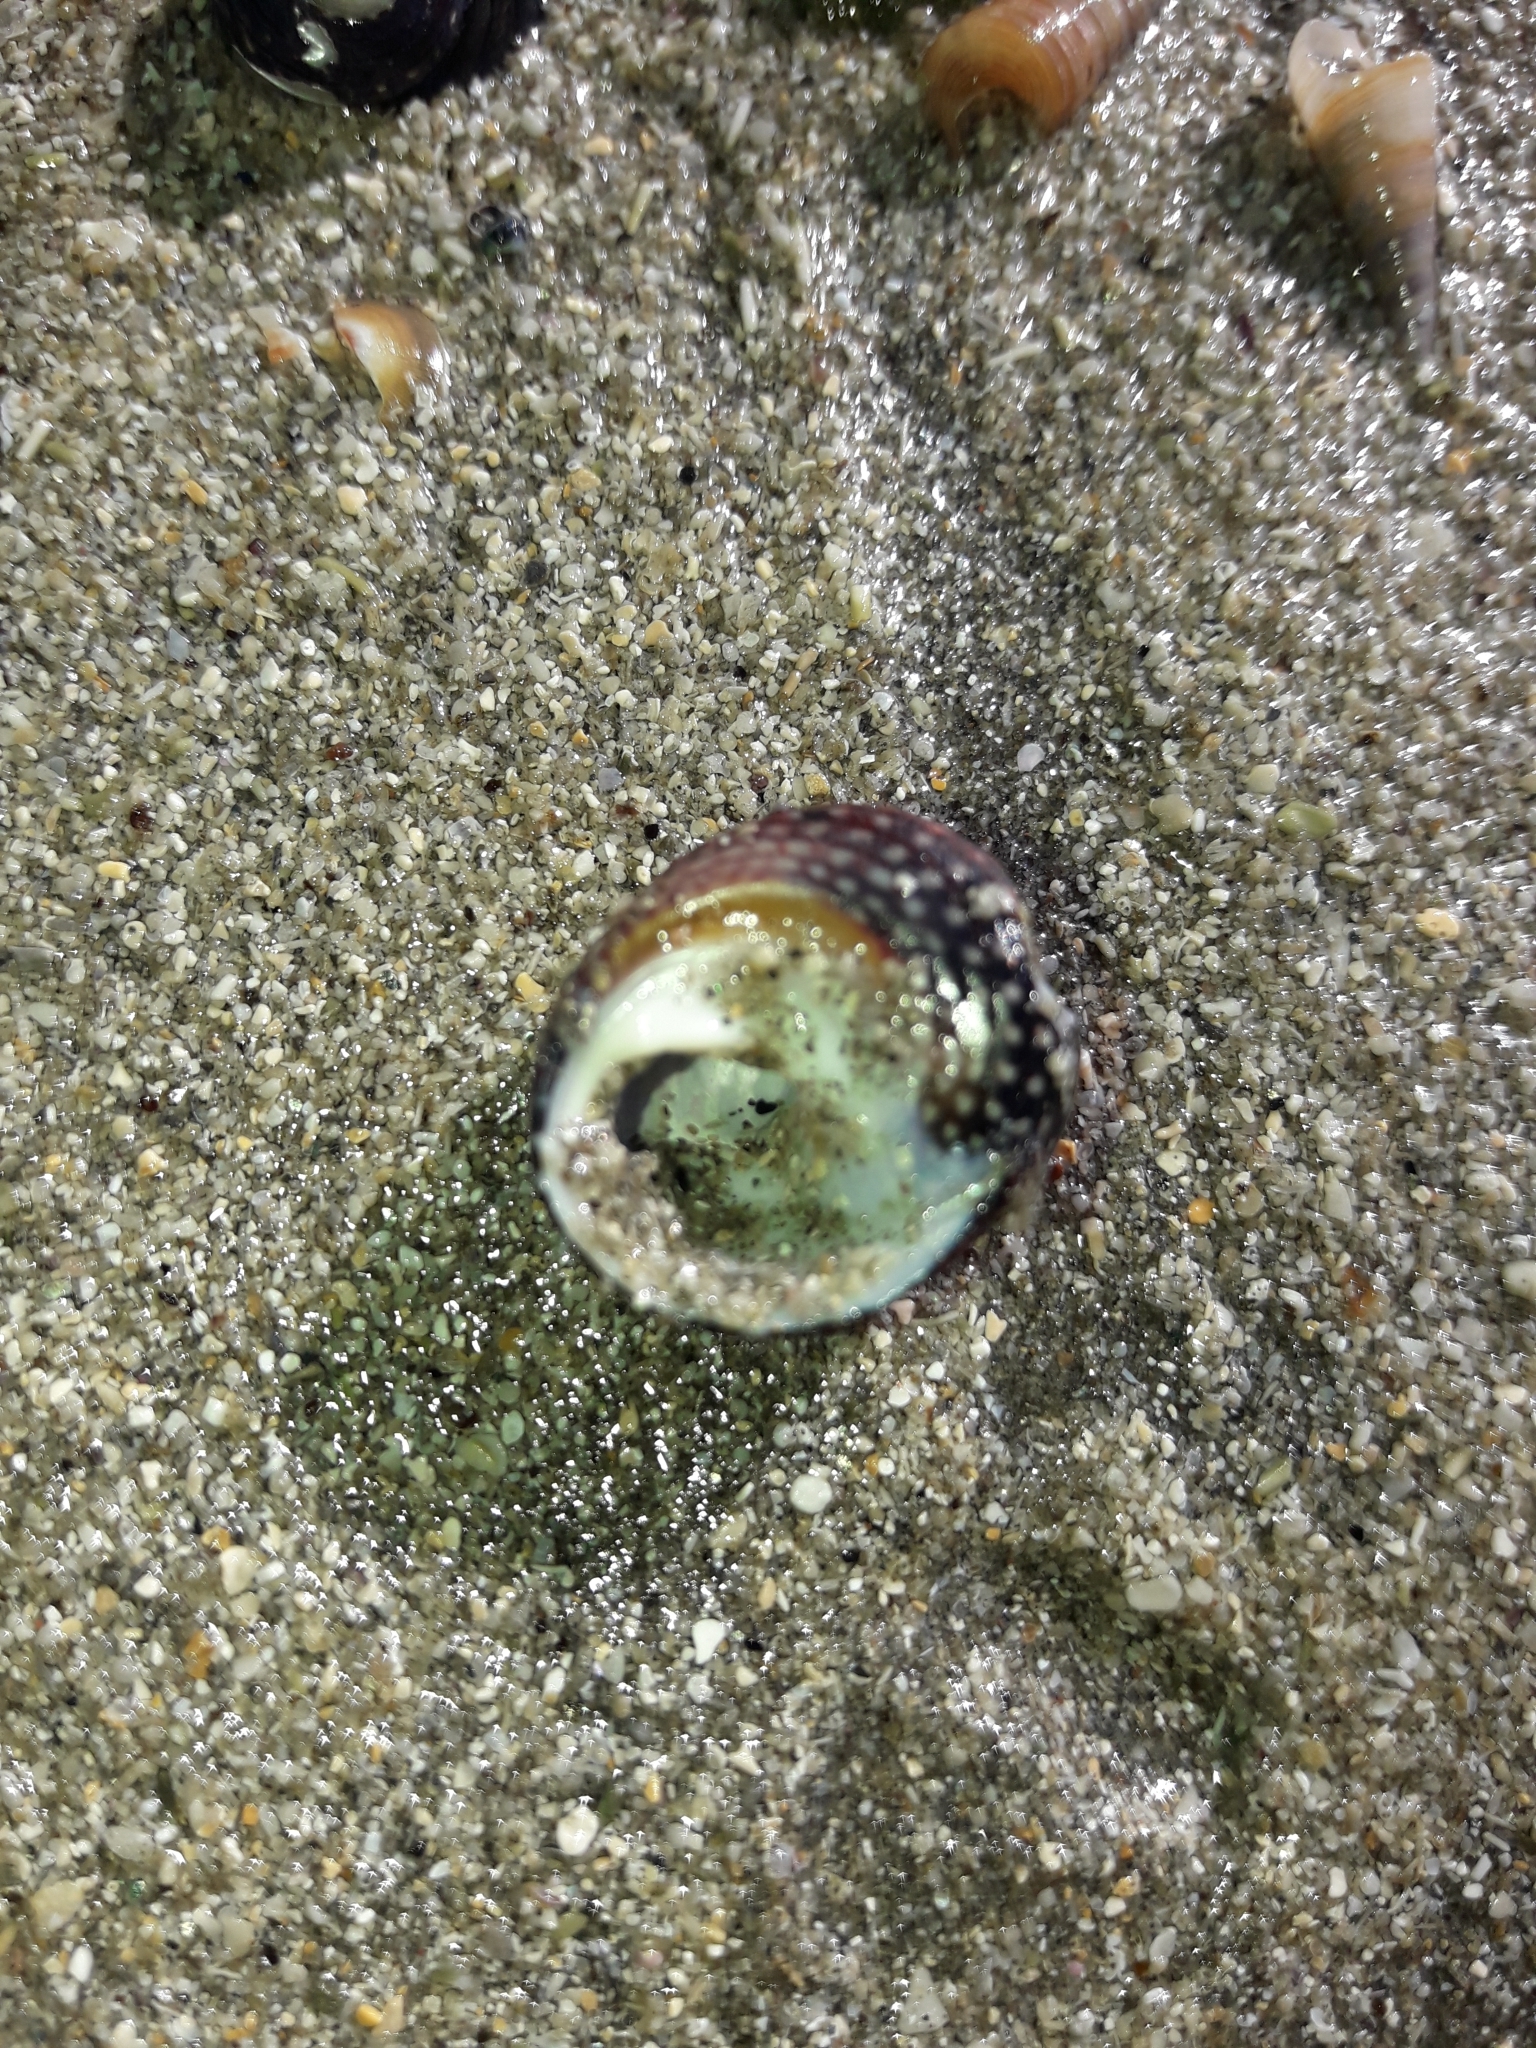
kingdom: Animalia
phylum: Mollusca
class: Gastropoda
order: Trochida
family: Trochidae
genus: Diloma
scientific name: Diloma aethiops
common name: Scorched monodont
